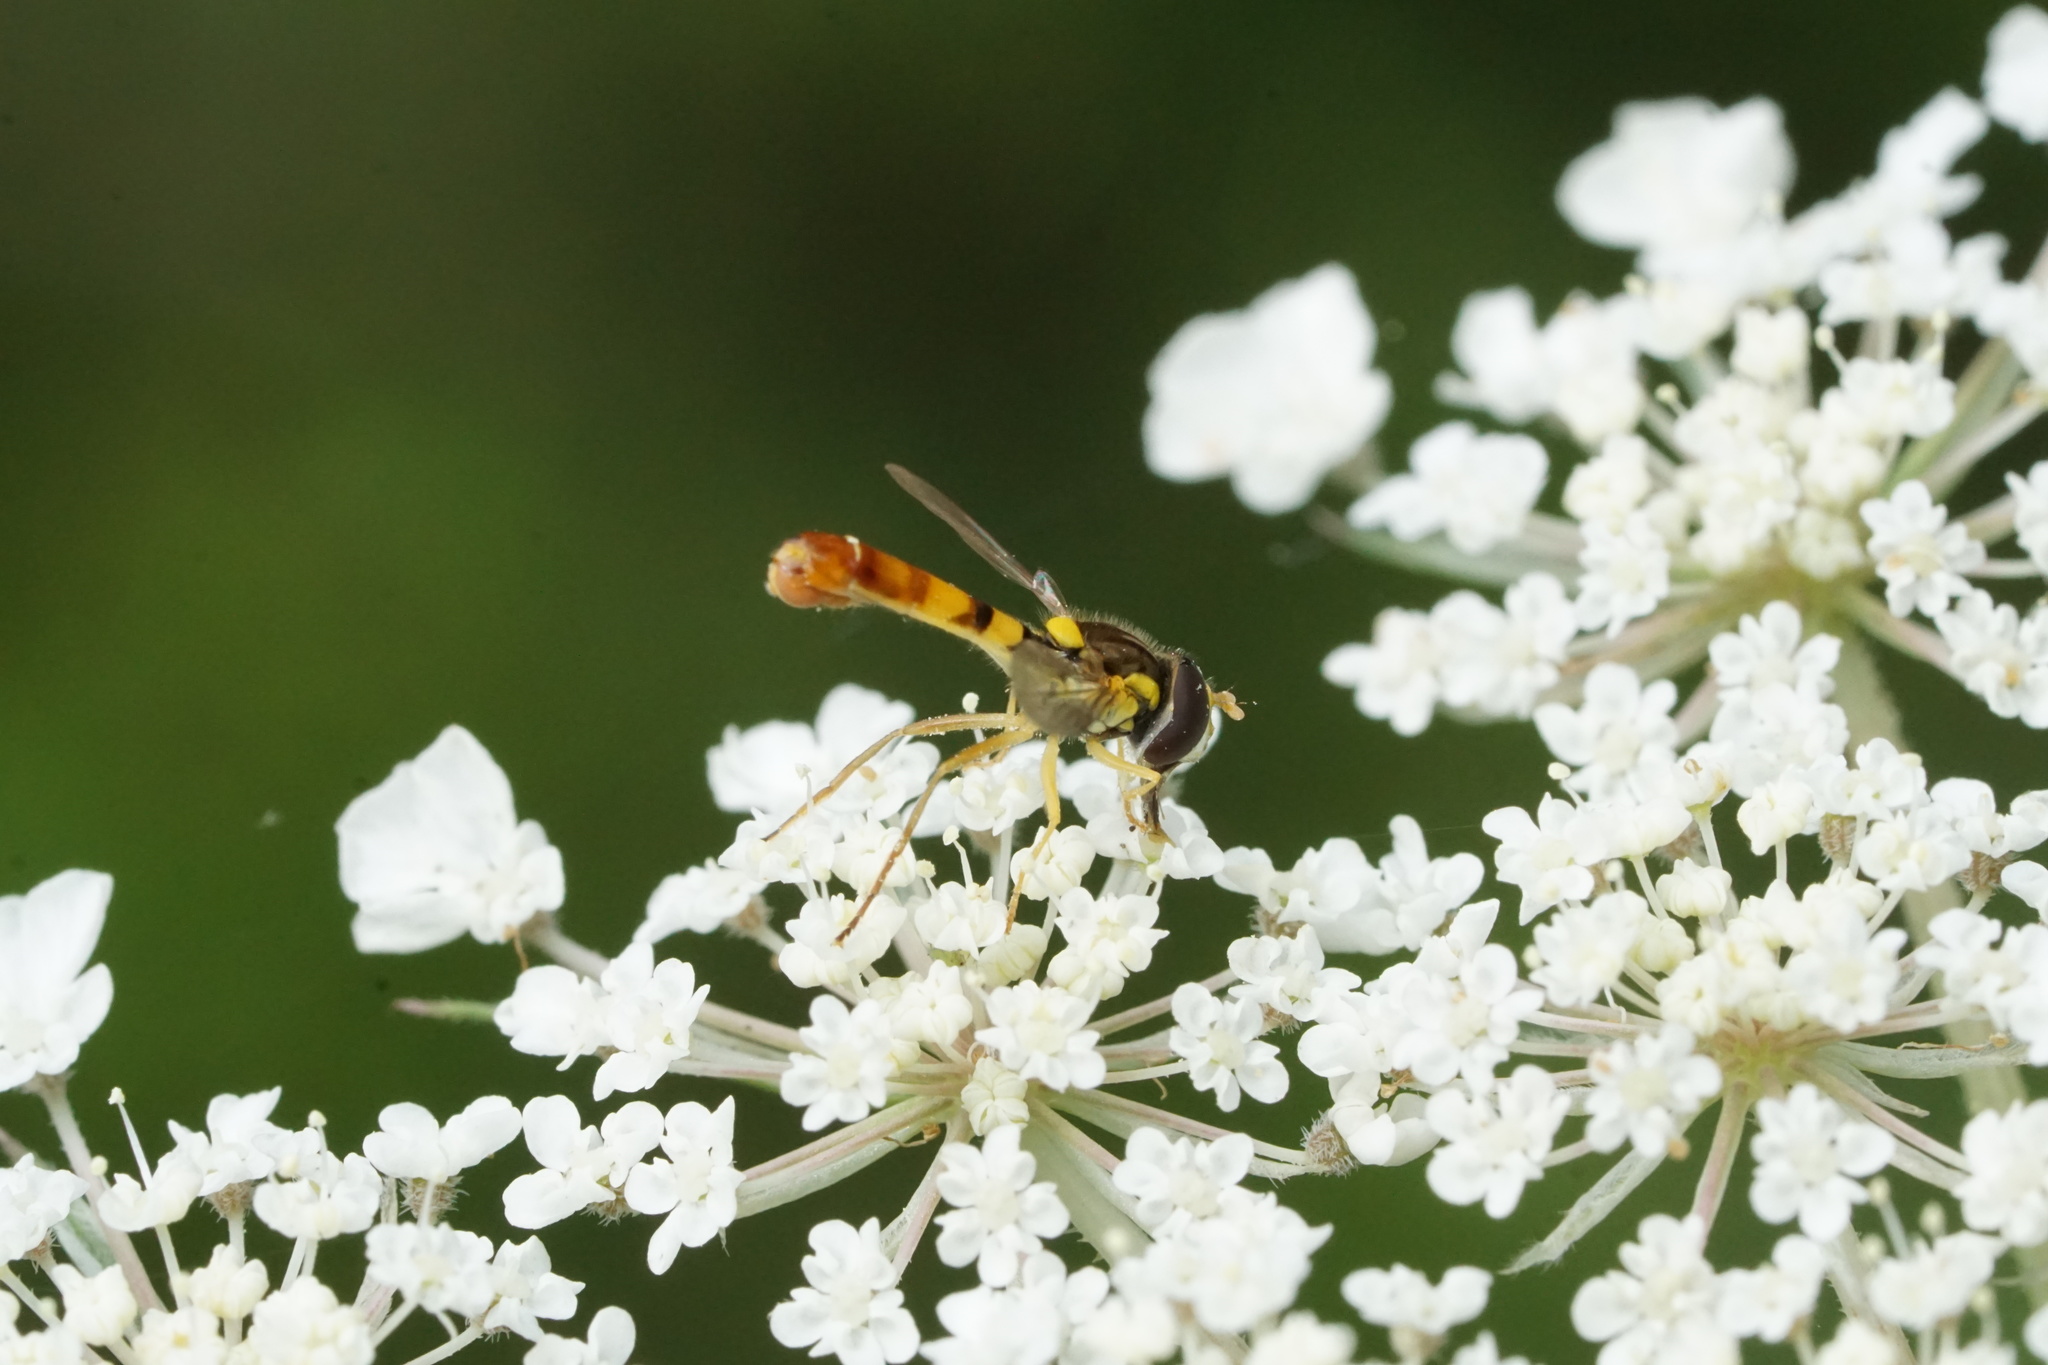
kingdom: Animalia
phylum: Arthropoda
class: Insecta
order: Diptera
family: Syrphidae
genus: Sphaerophoria
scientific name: Sphaerophoria contigua
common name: Tufted globetail
